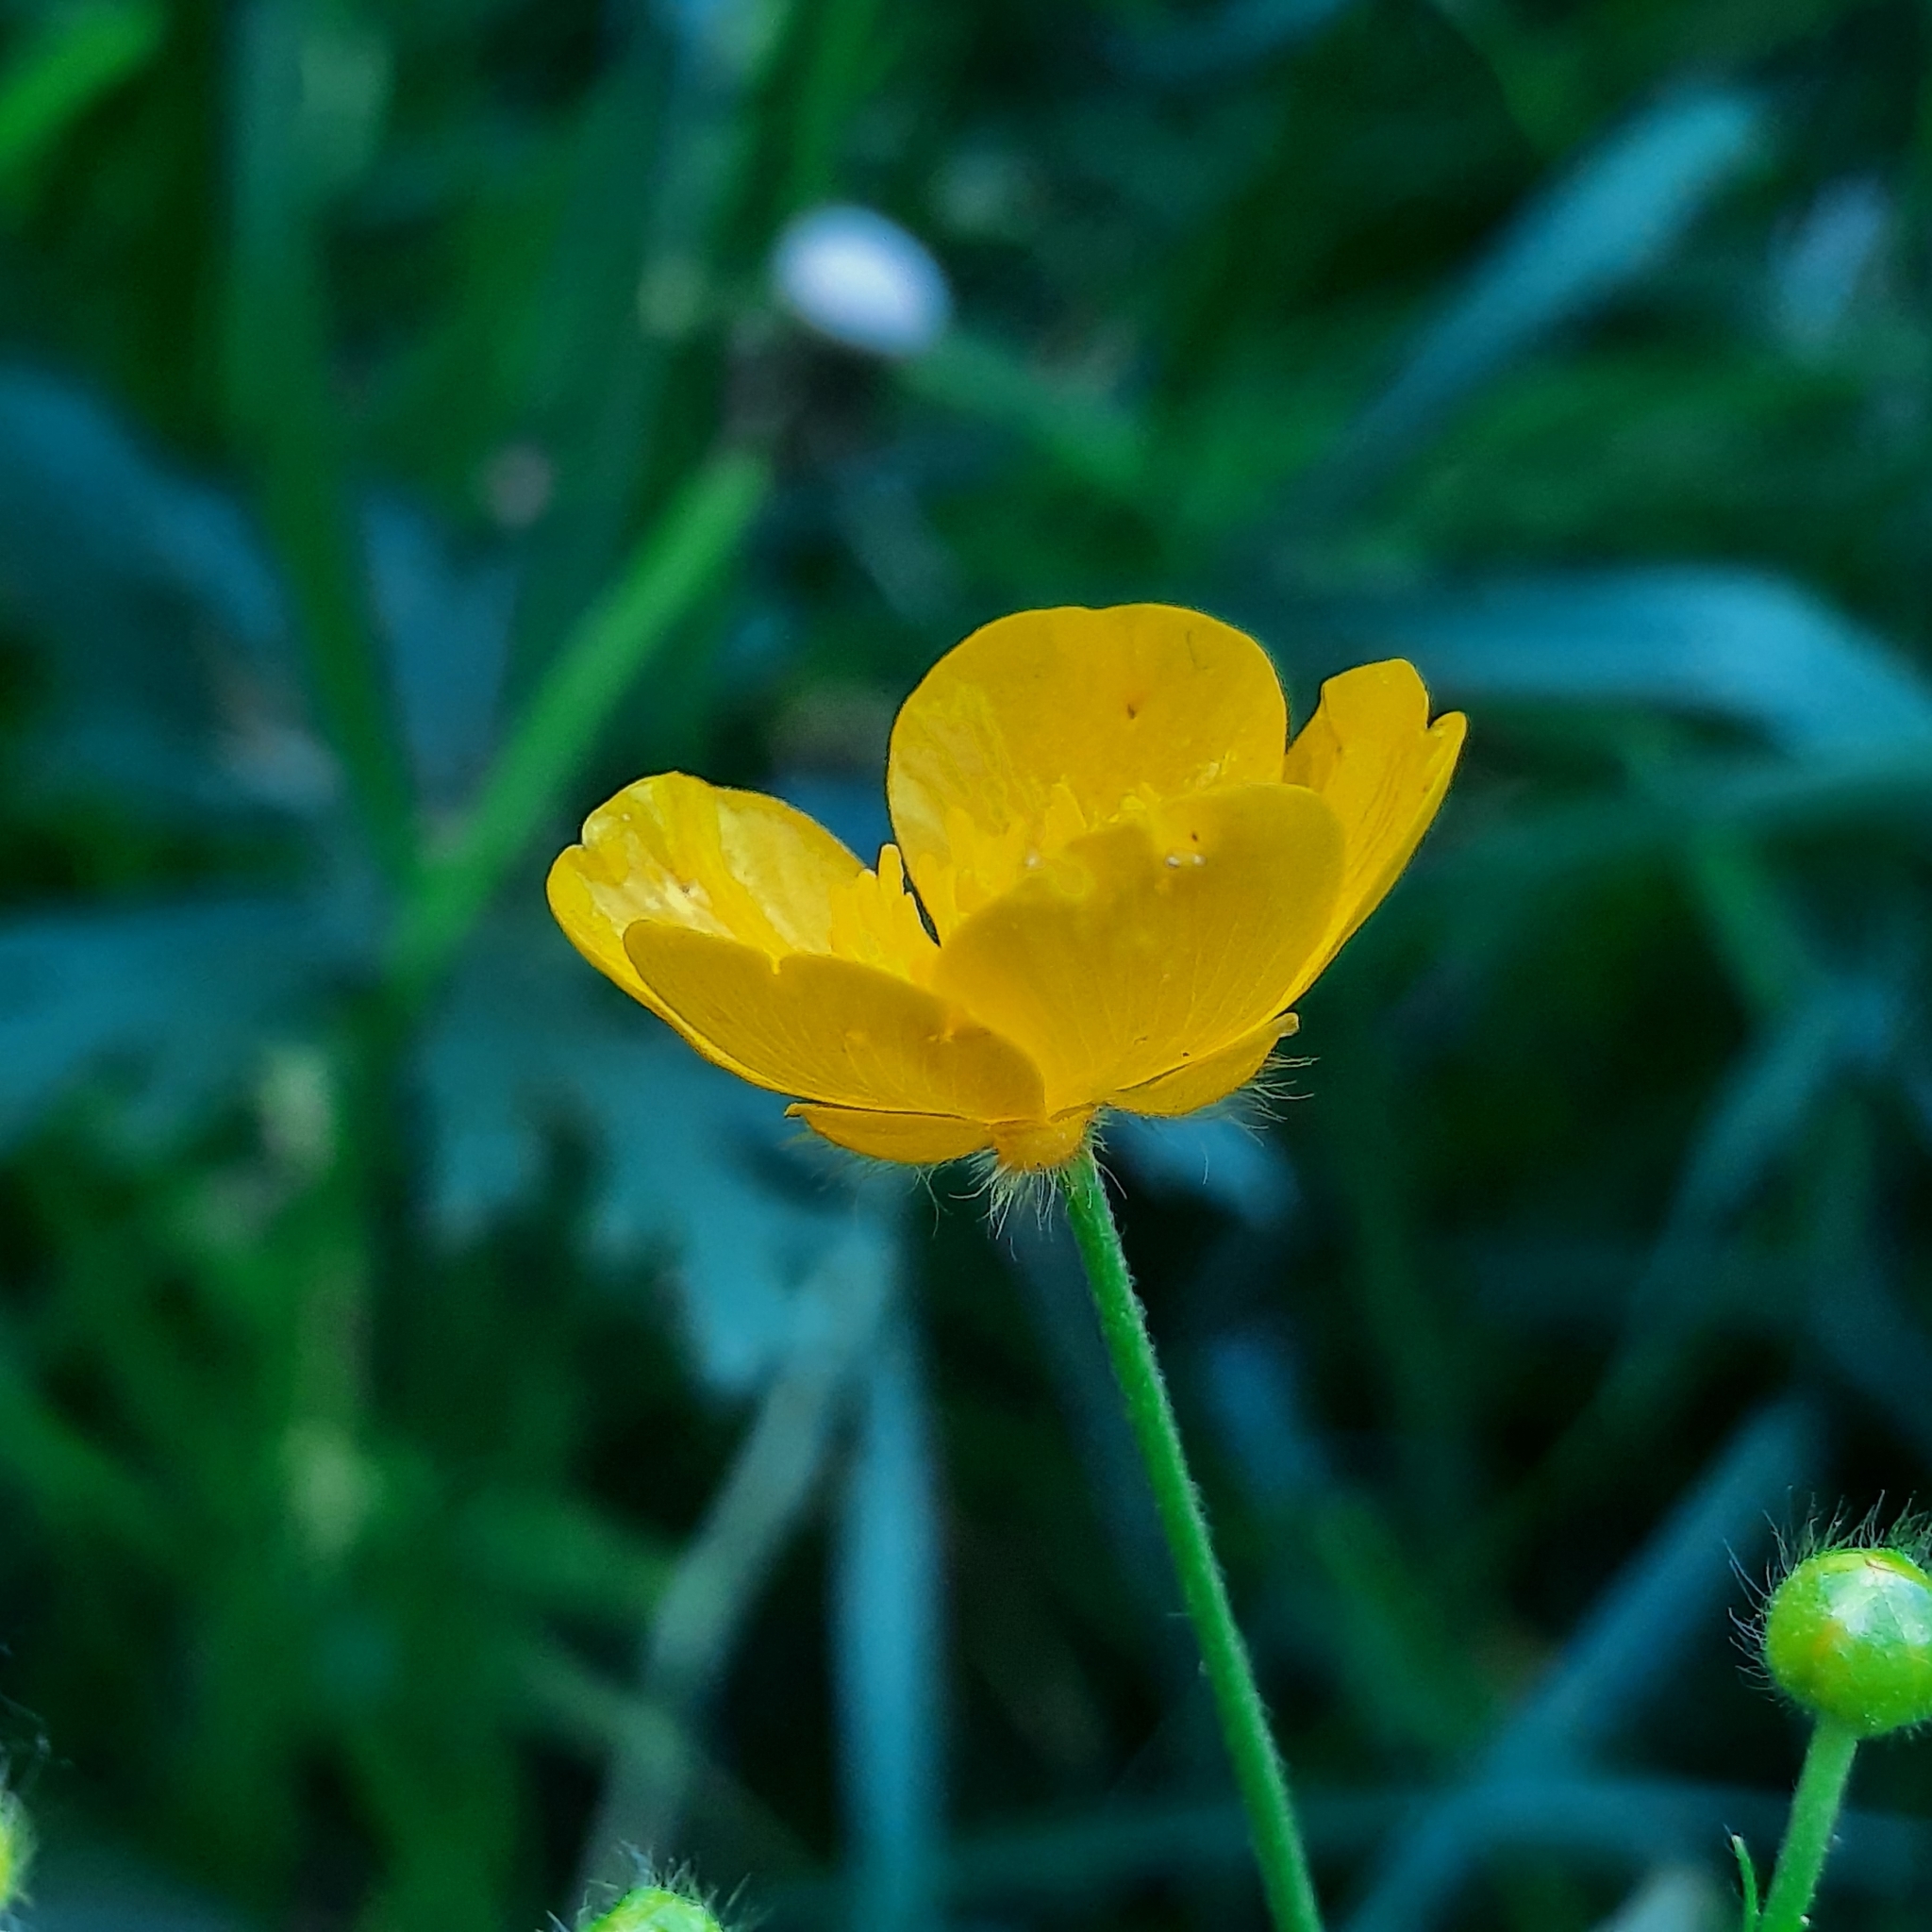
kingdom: Plantae
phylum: Tracheophyta
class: Magnoliopsida
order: Ranunculales
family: Ranunculaceae
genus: Ranunculus
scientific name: Ranunculus acris
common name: Meadow buttercup
